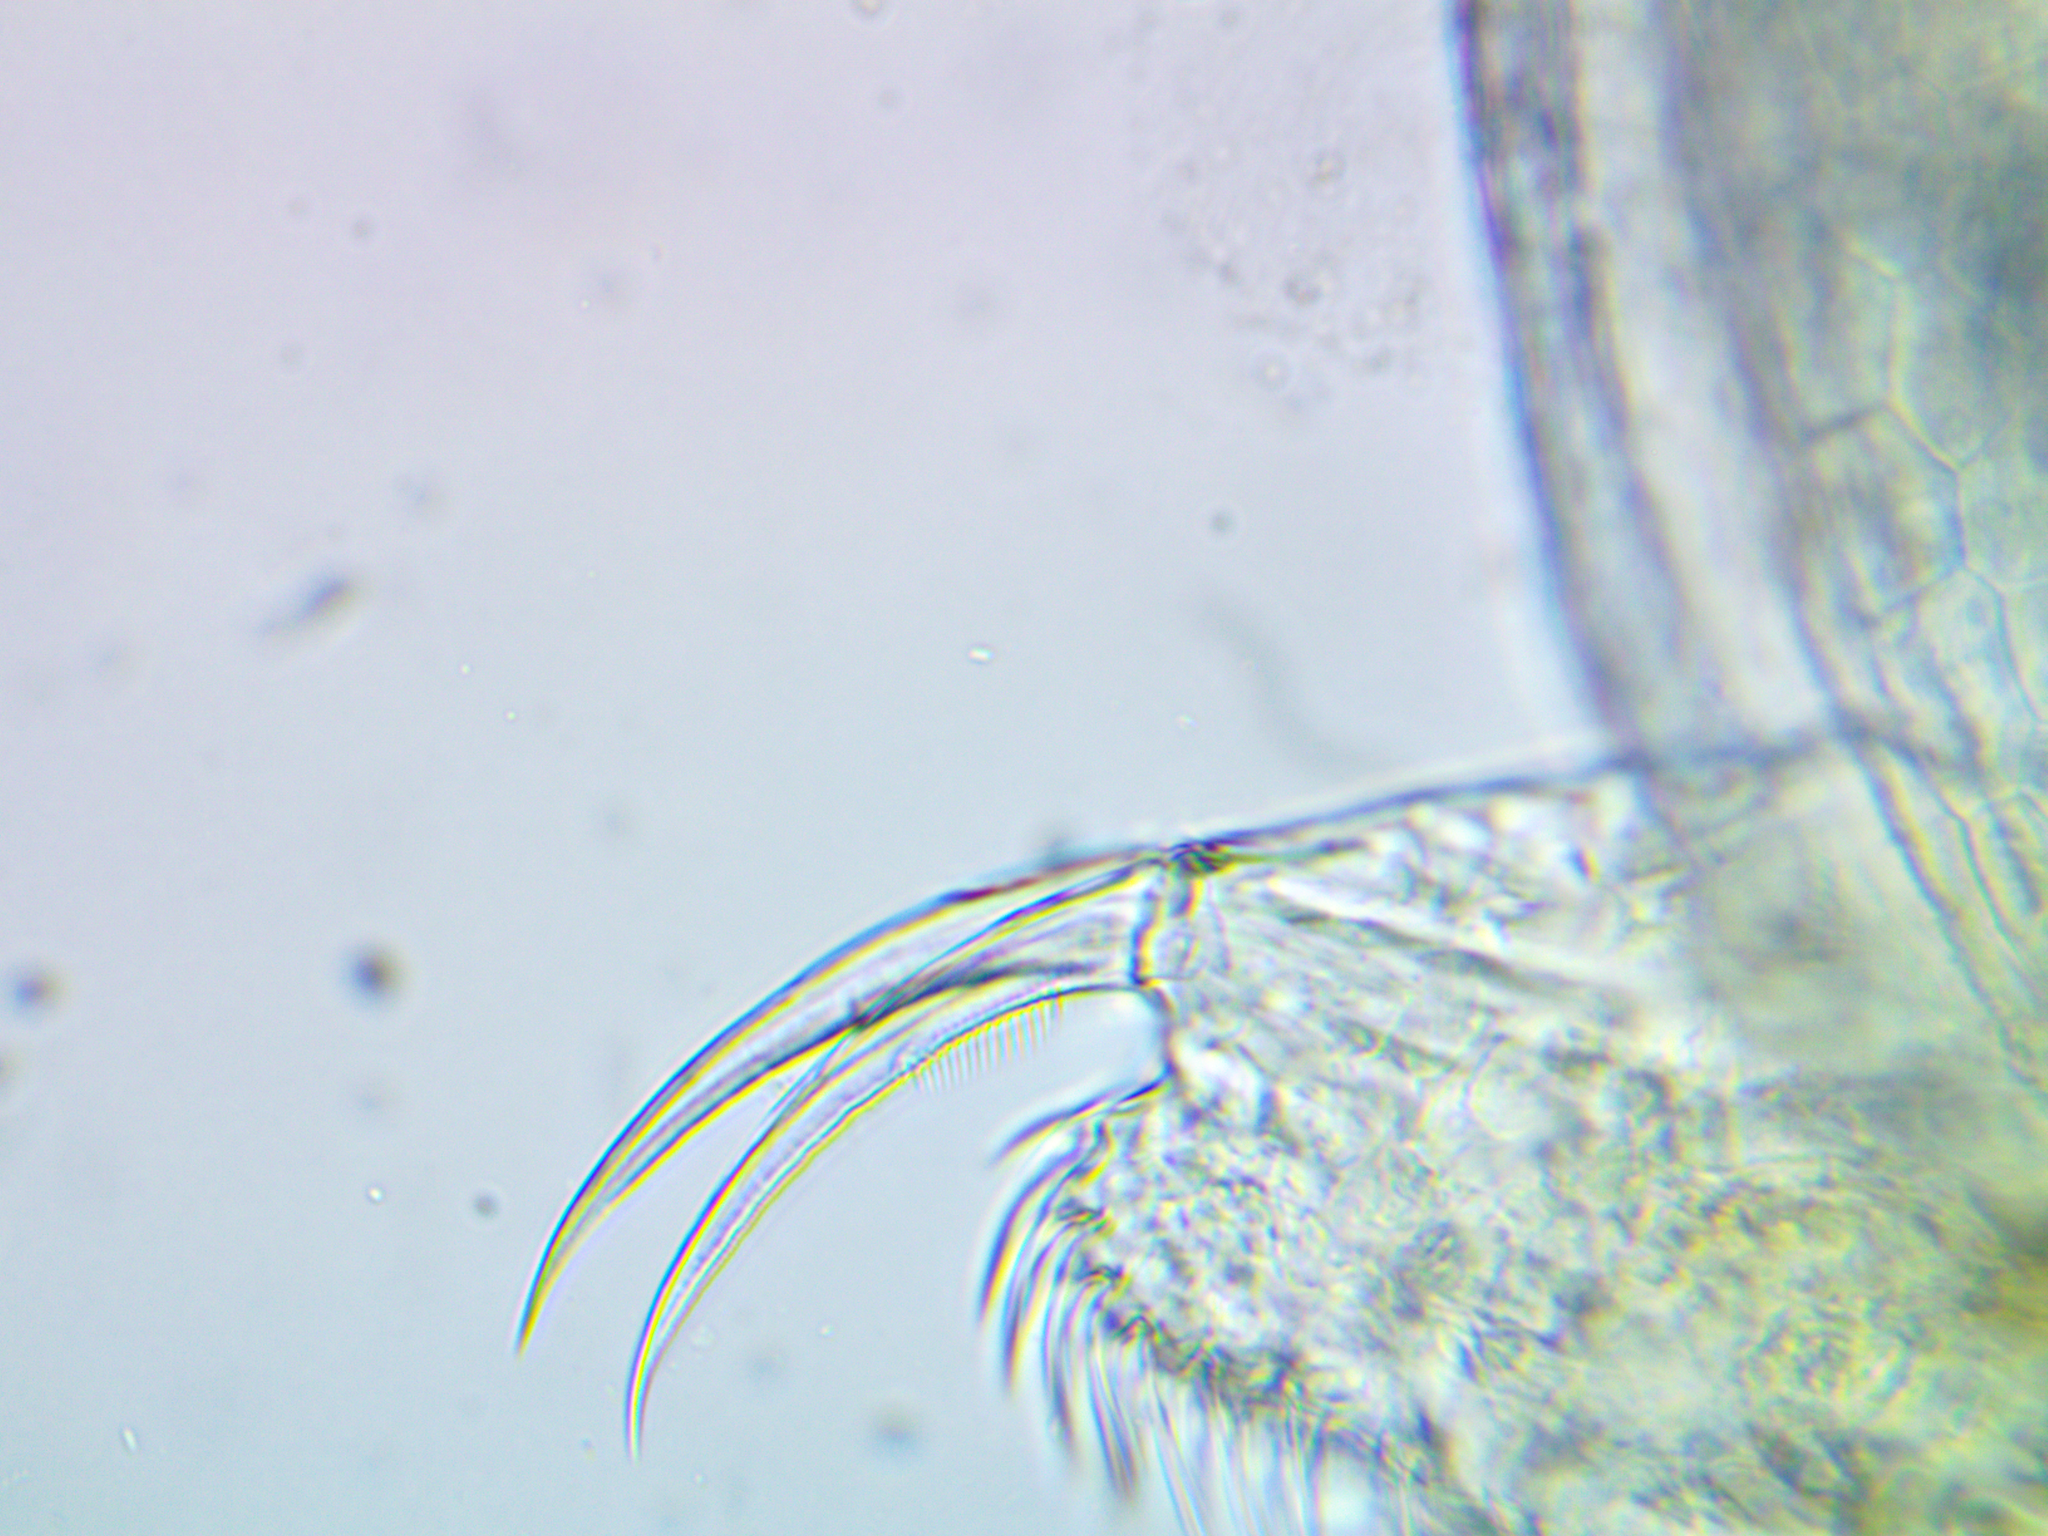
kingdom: Animalia
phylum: Arthropoda
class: Branchiopoda
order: Diplostraca
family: Daphniidae
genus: Ceriodaphnia
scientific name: Ceriodaphnia dubia
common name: Water flea
